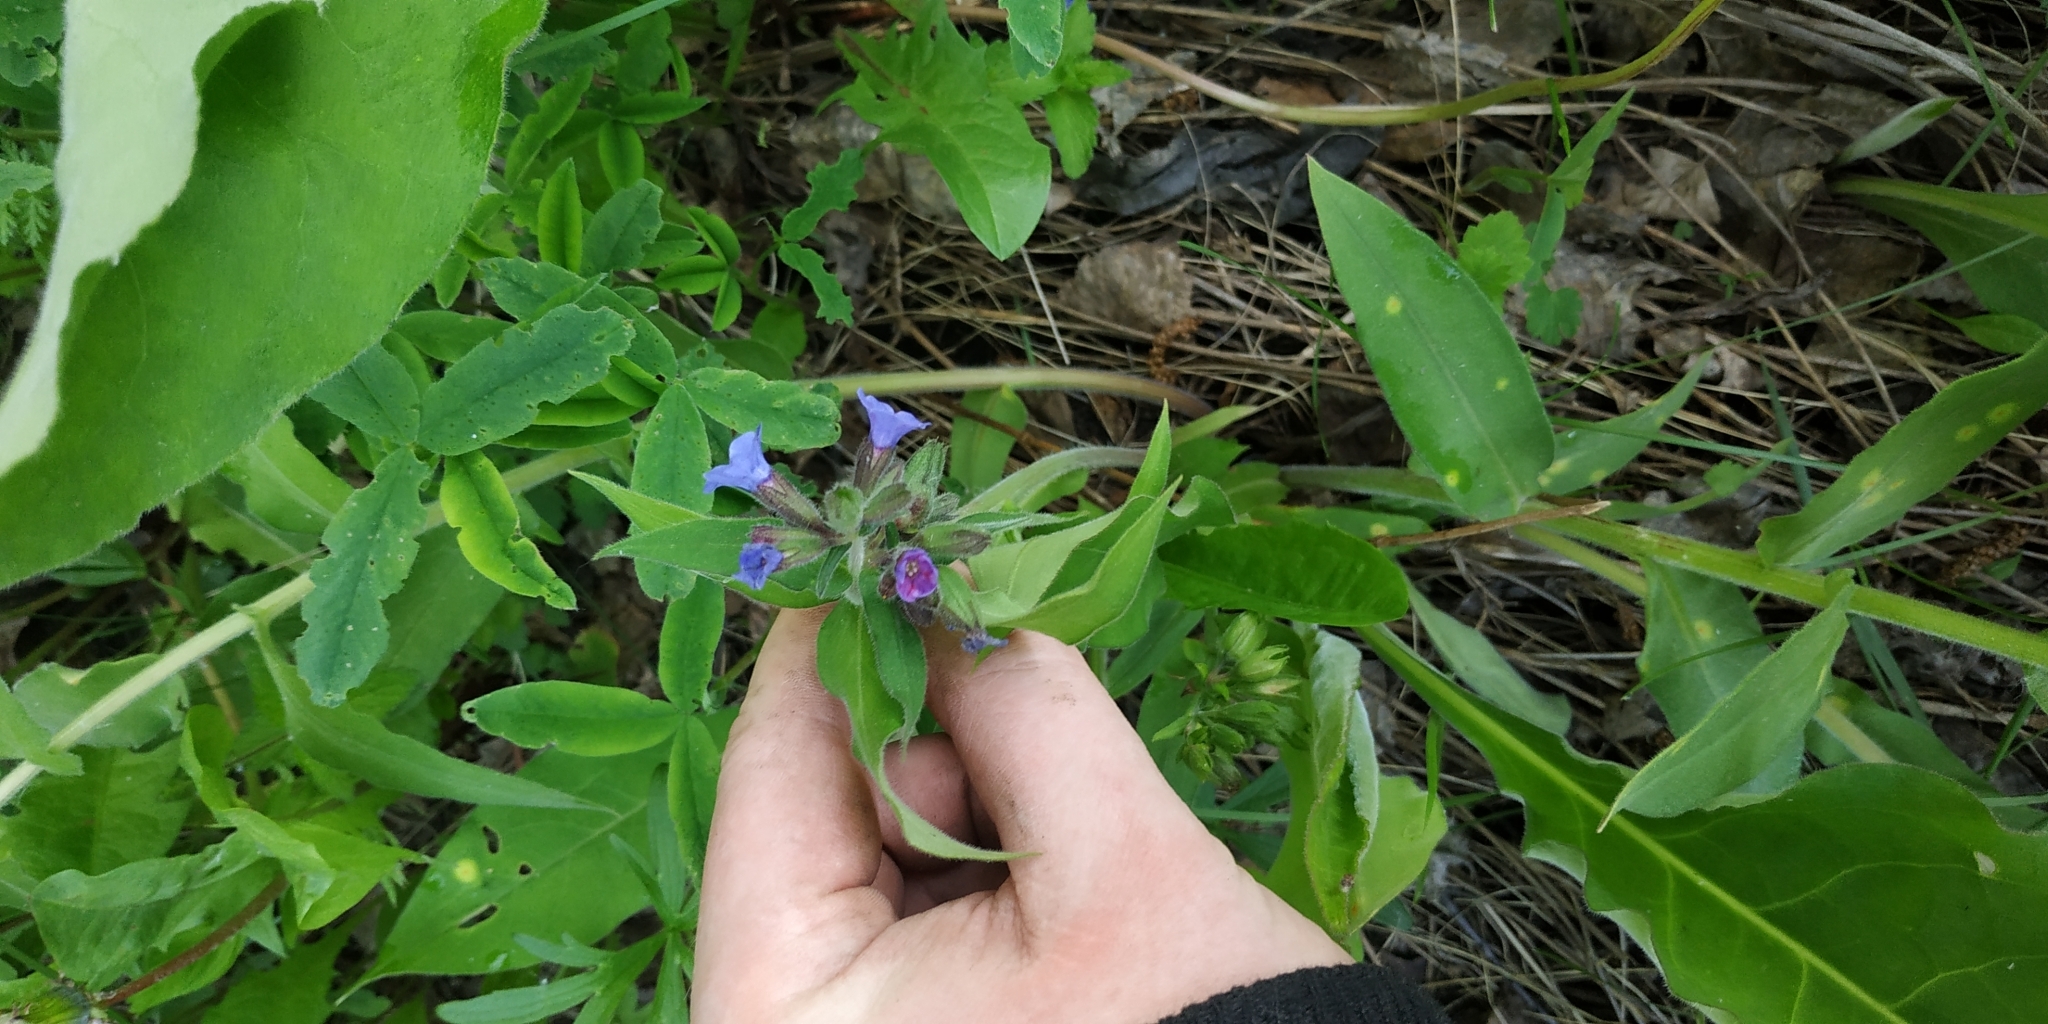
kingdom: Plantae
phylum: Tracheophyta
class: Magnoliopsida
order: Boraginales
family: Boraginaceae
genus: Pulmonaria
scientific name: Pulmonaria mollis
